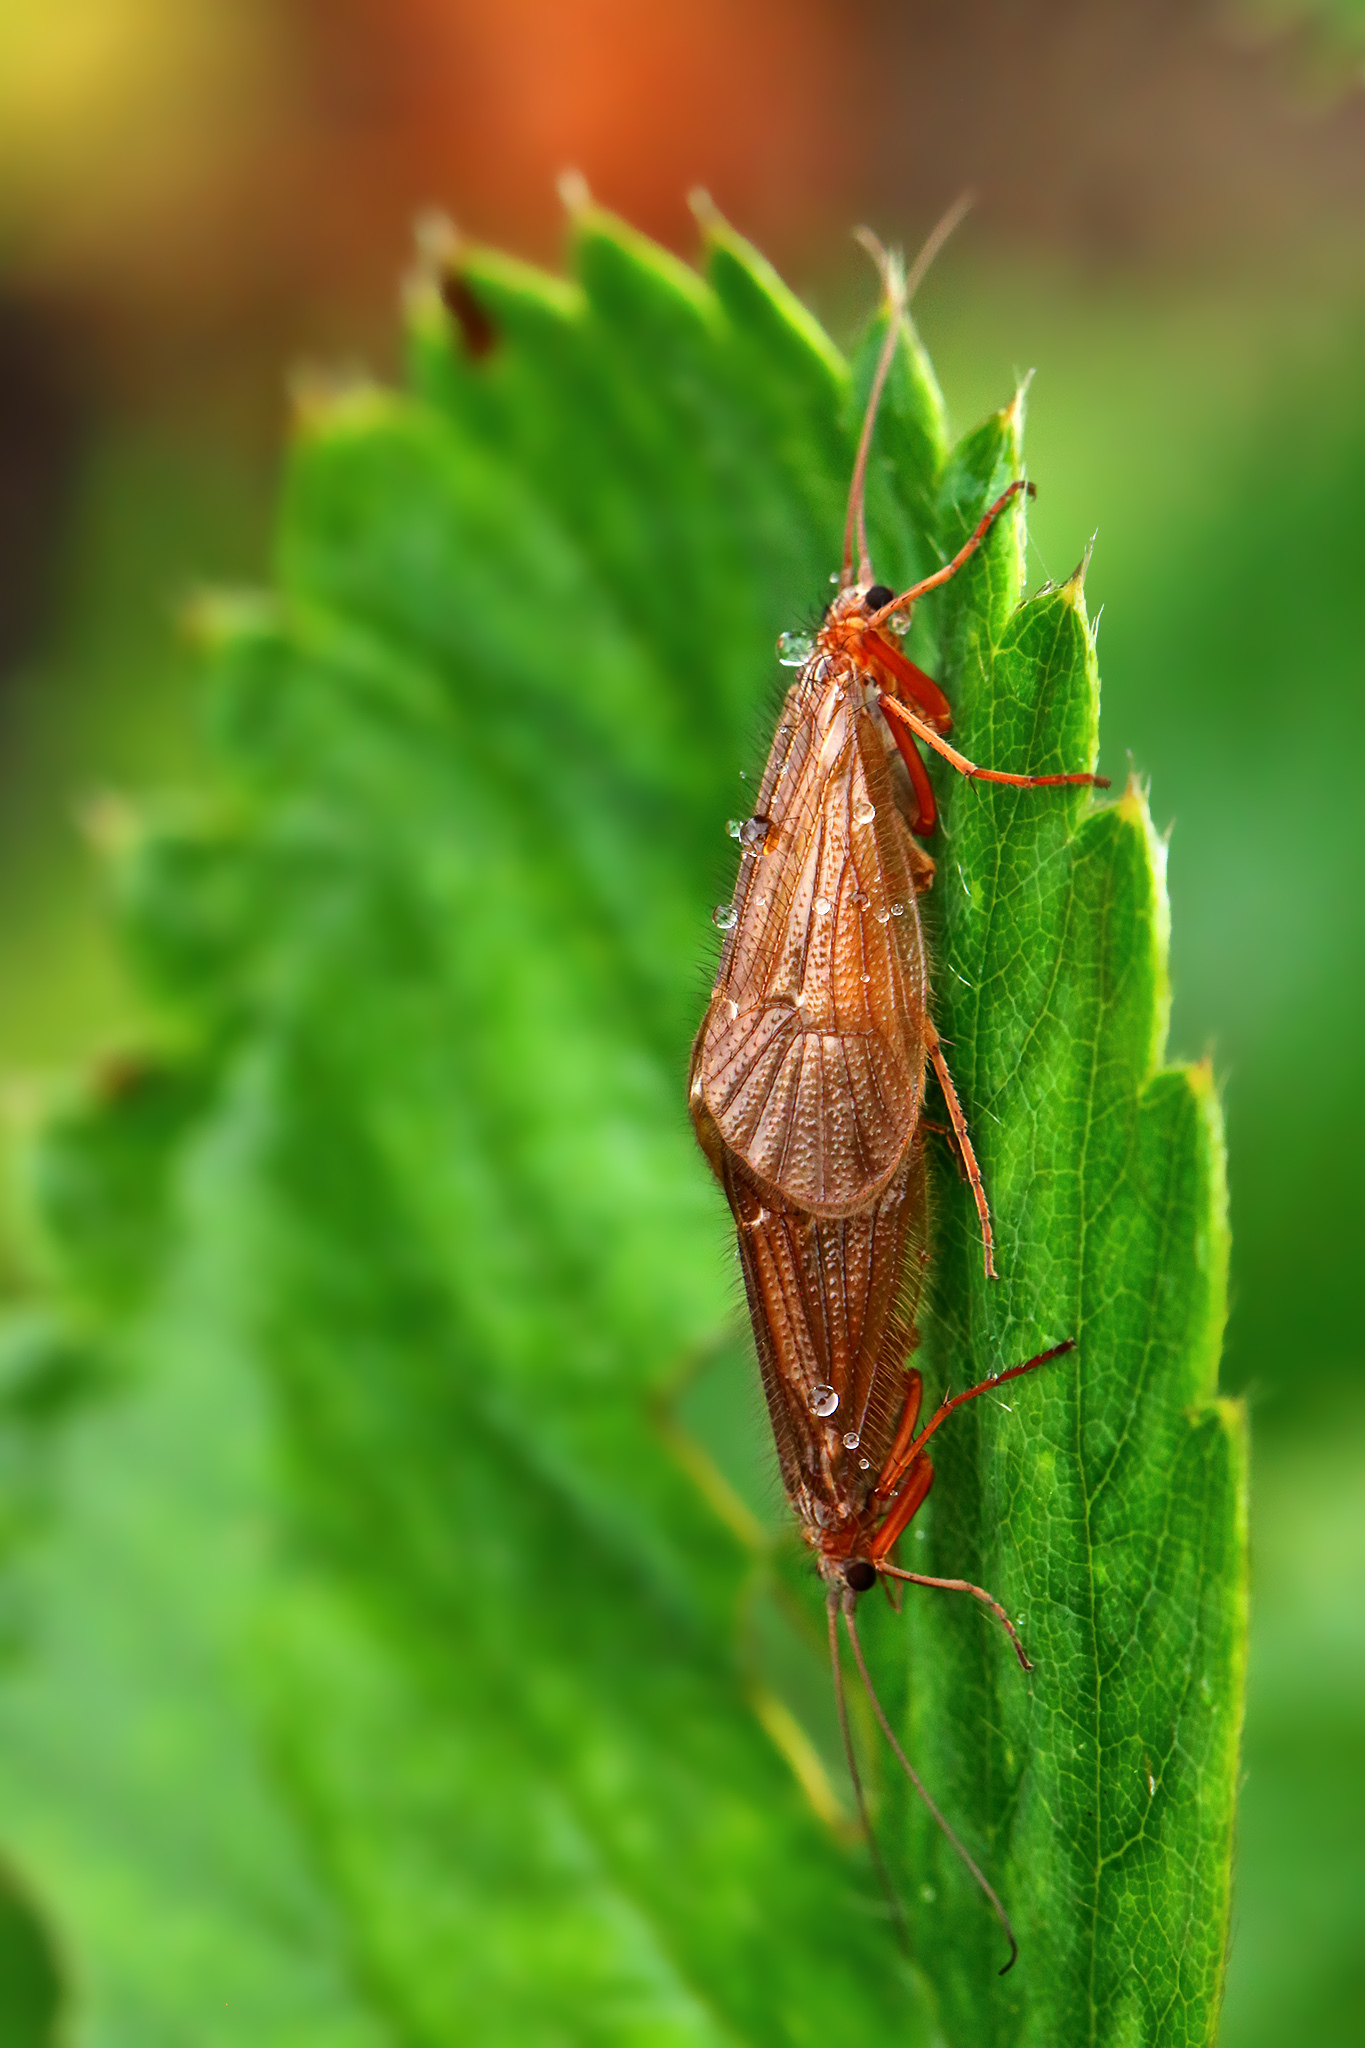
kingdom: Animalia
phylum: Arthropoda
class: Insecta
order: Trichoptera
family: Limnephilidae
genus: Chaetopteryx
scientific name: Chaetopteryx villosa
